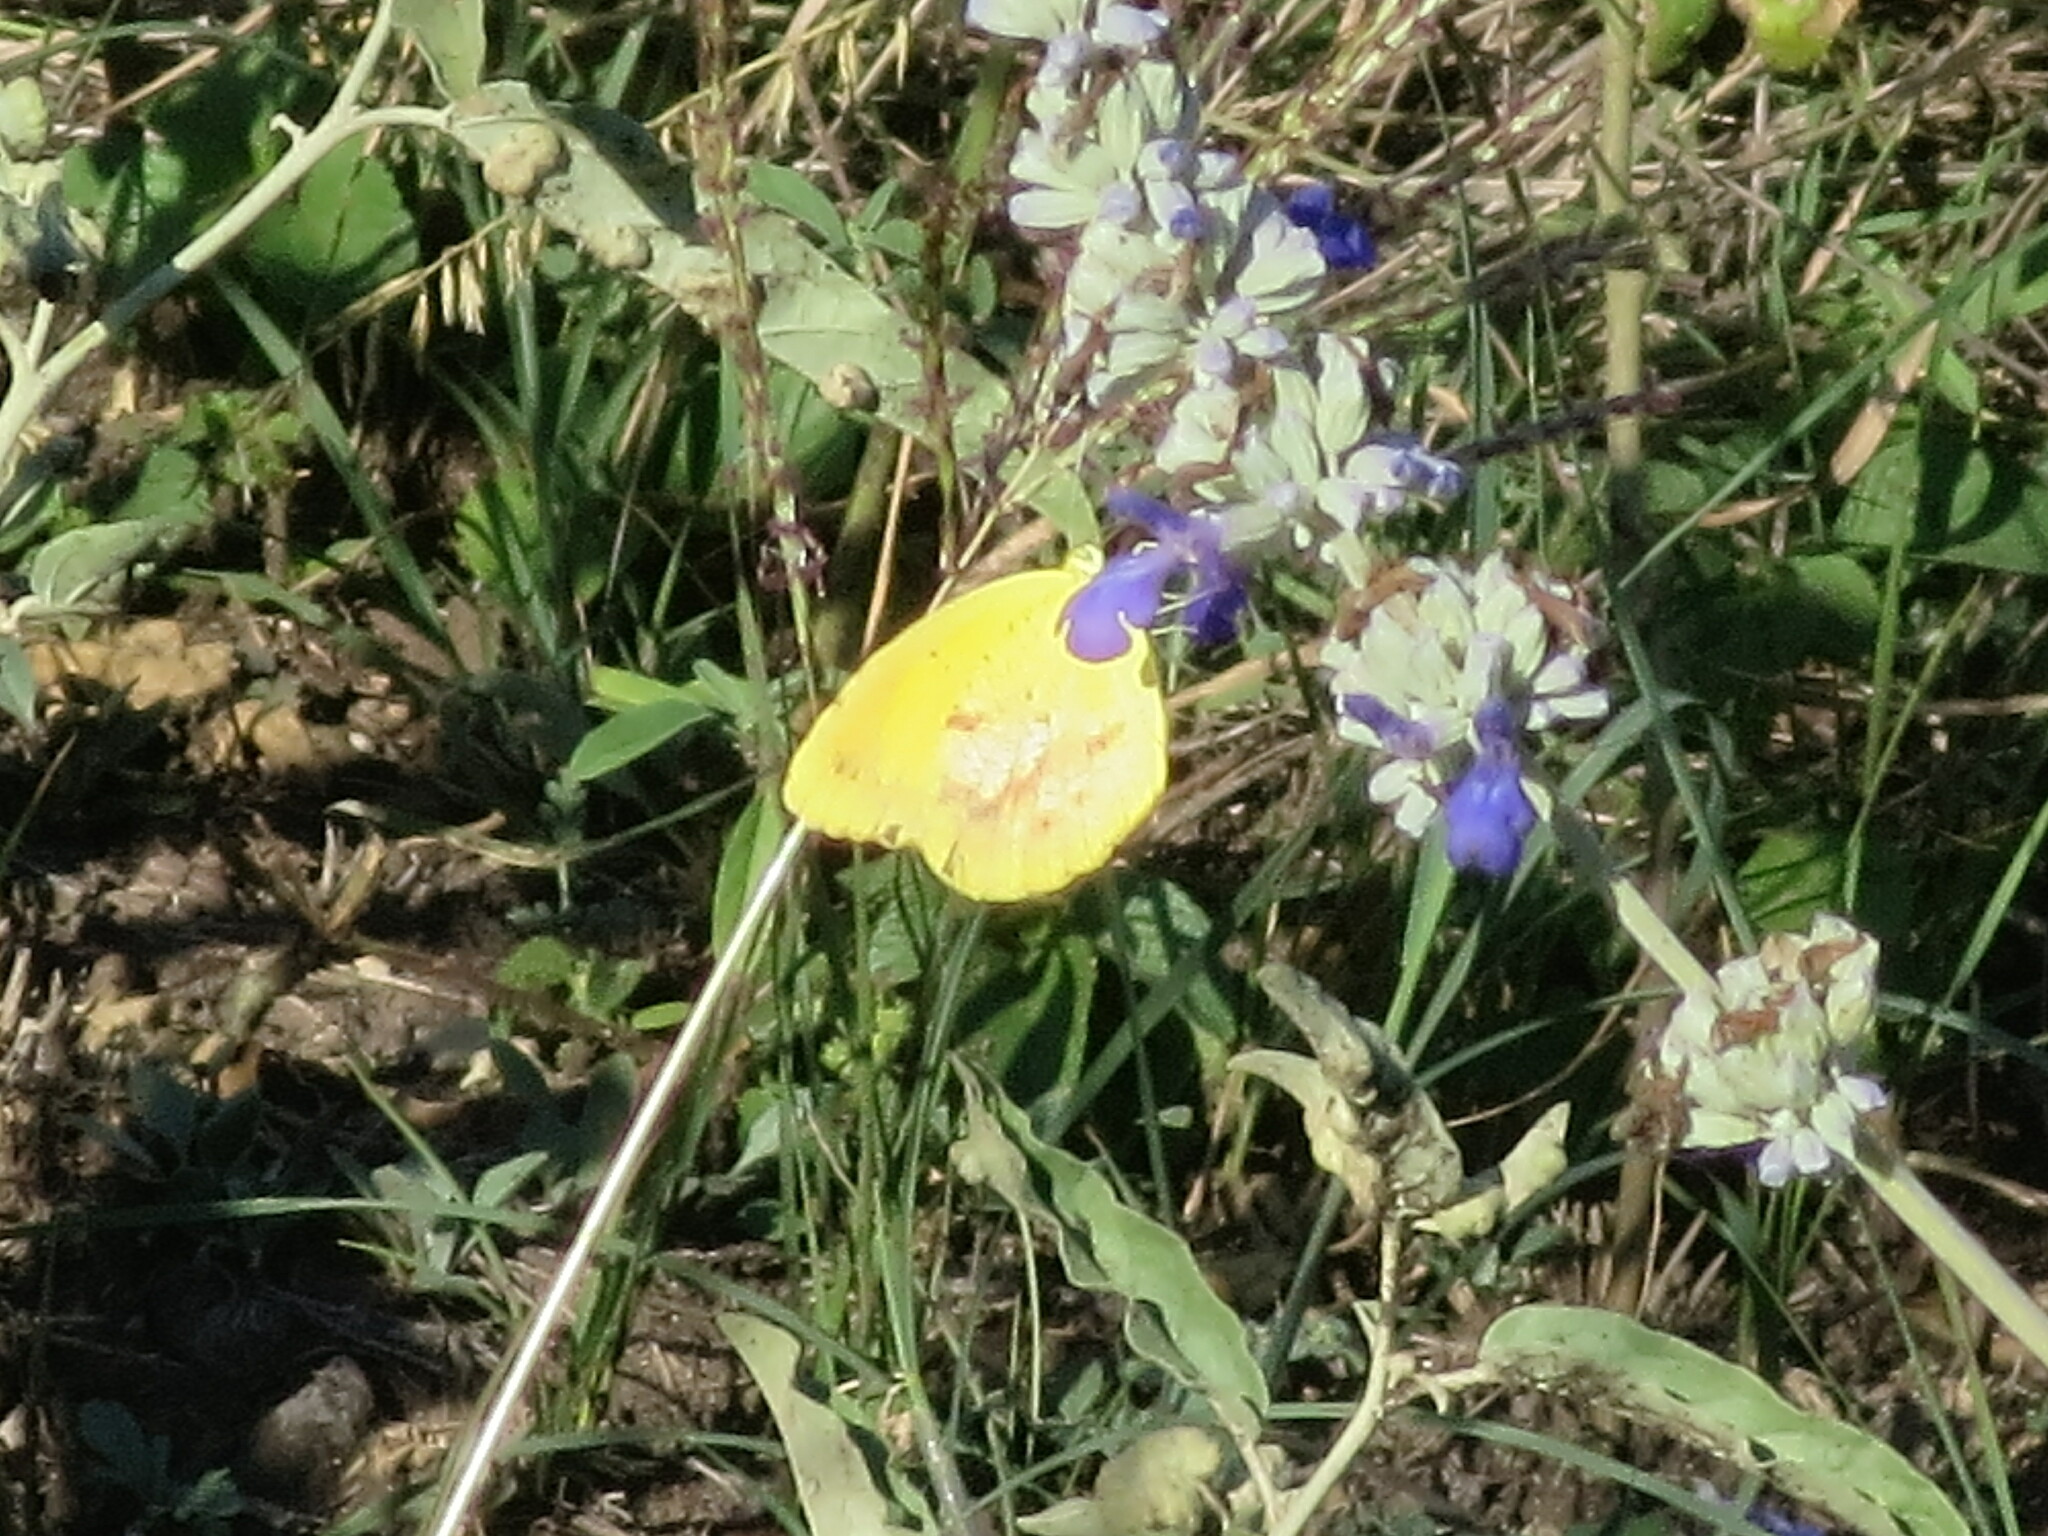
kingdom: Animalia
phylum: Arthropoda
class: Insecta
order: Lepidoptera
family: Pieridae
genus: Abaeis
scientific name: Abaeis nicippe
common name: Sleepy orange
